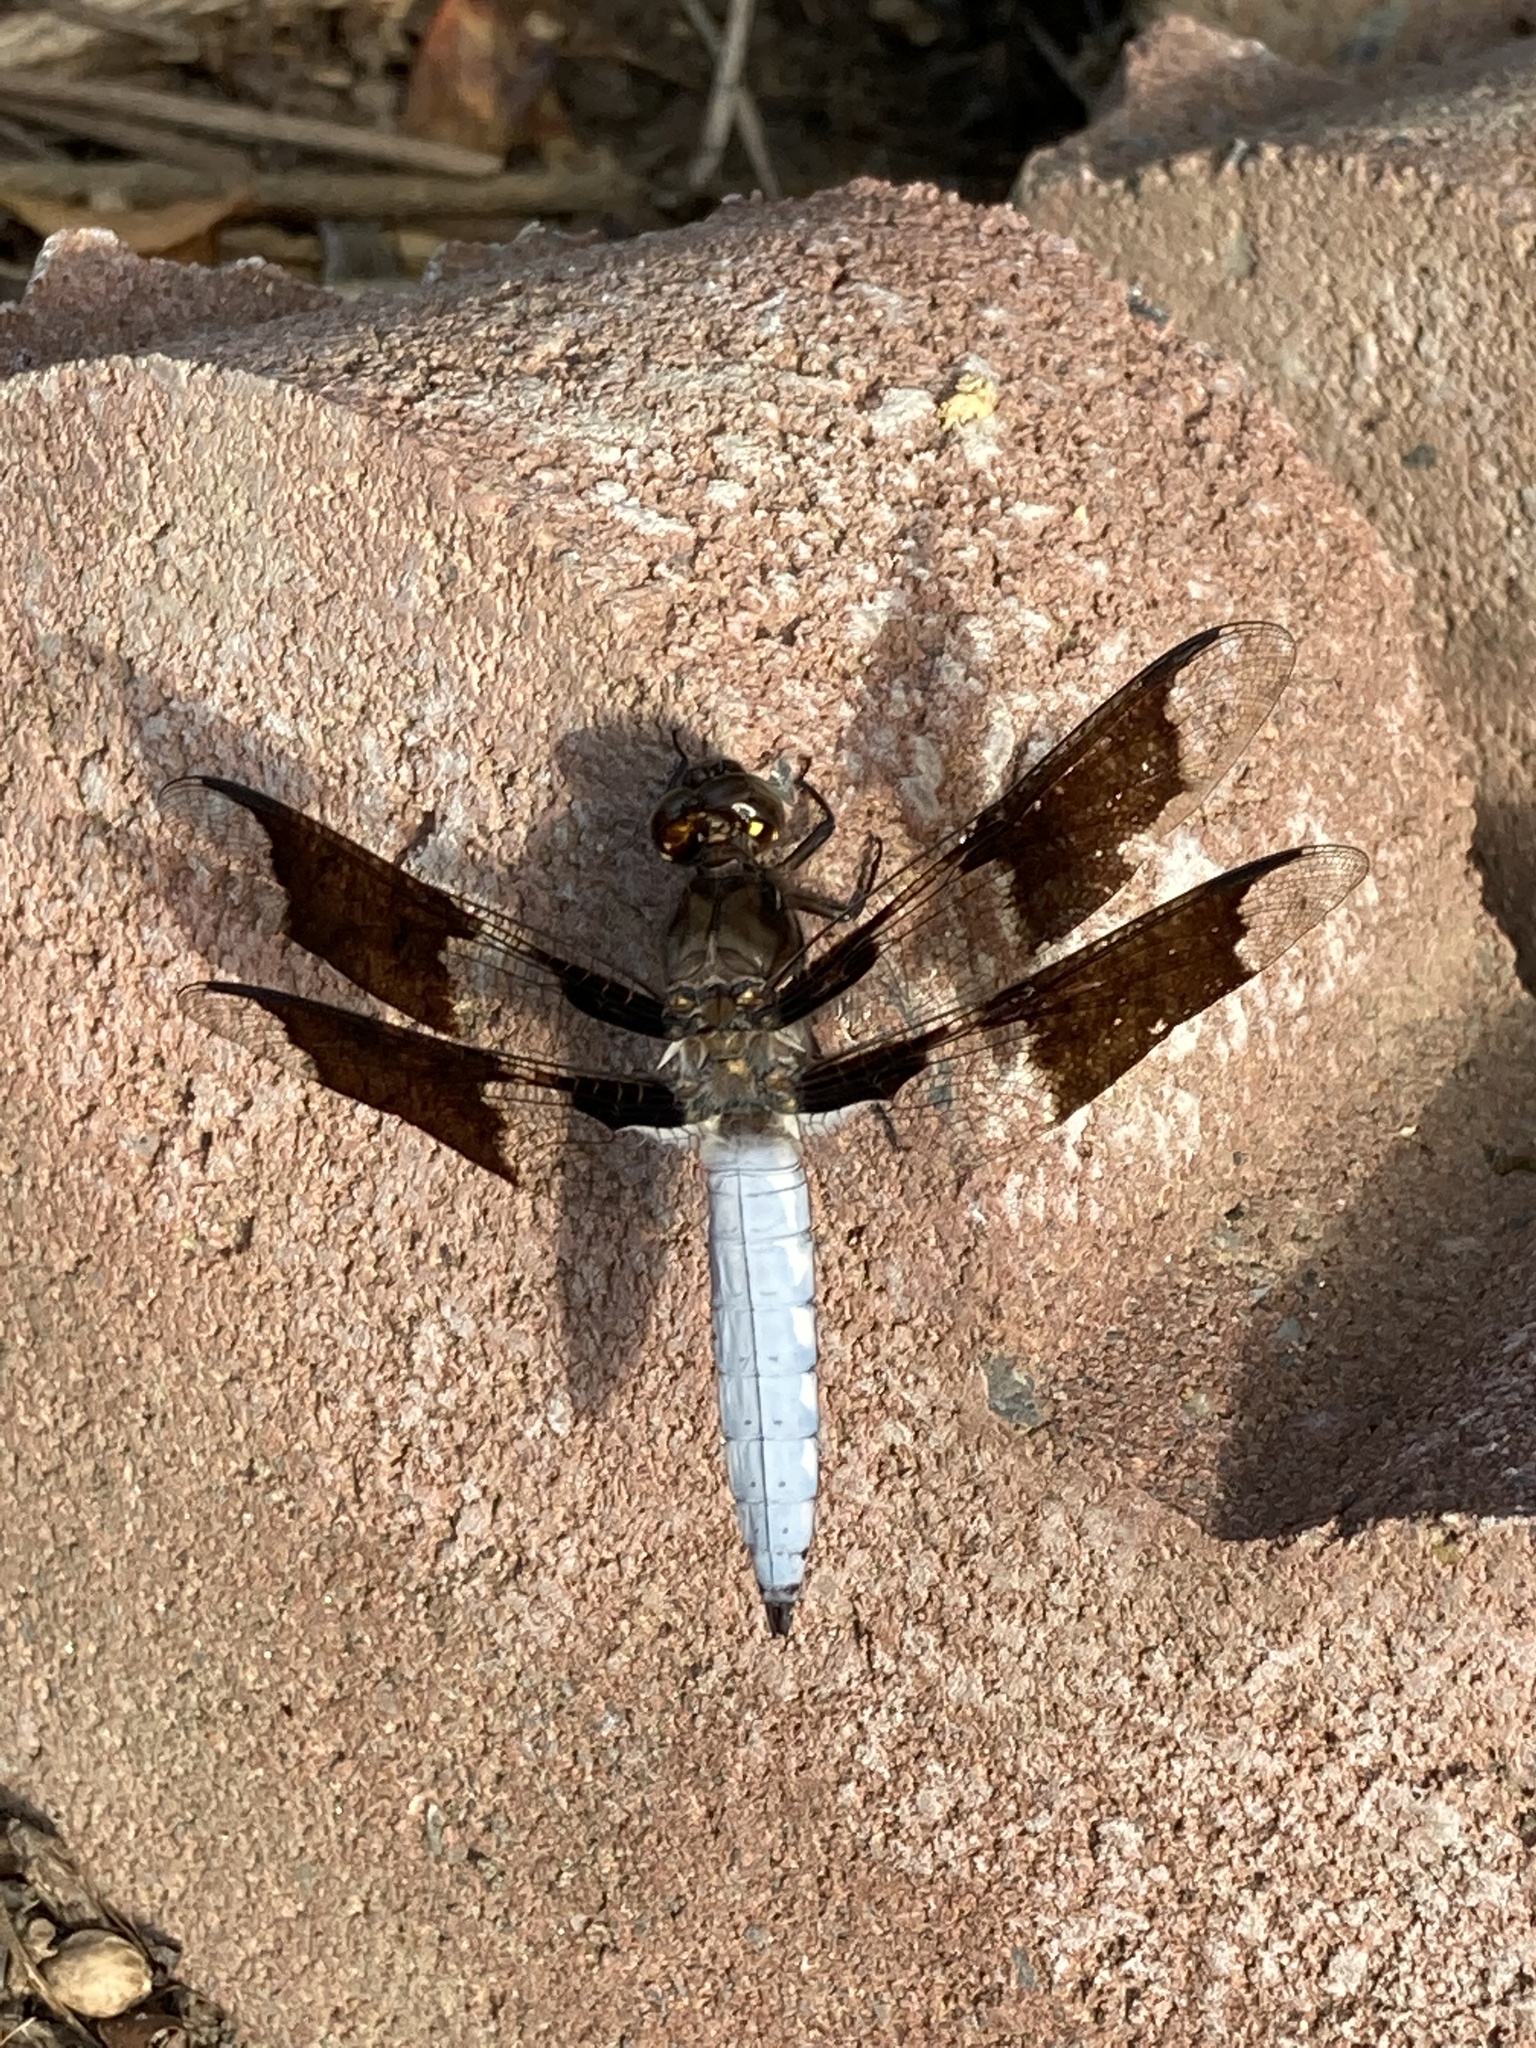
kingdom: Animalia
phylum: Arthropoda
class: Insecta
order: Odonata
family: Libellulidae
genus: Plathemis
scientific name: Plathemis lydia
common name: Common whitetail
